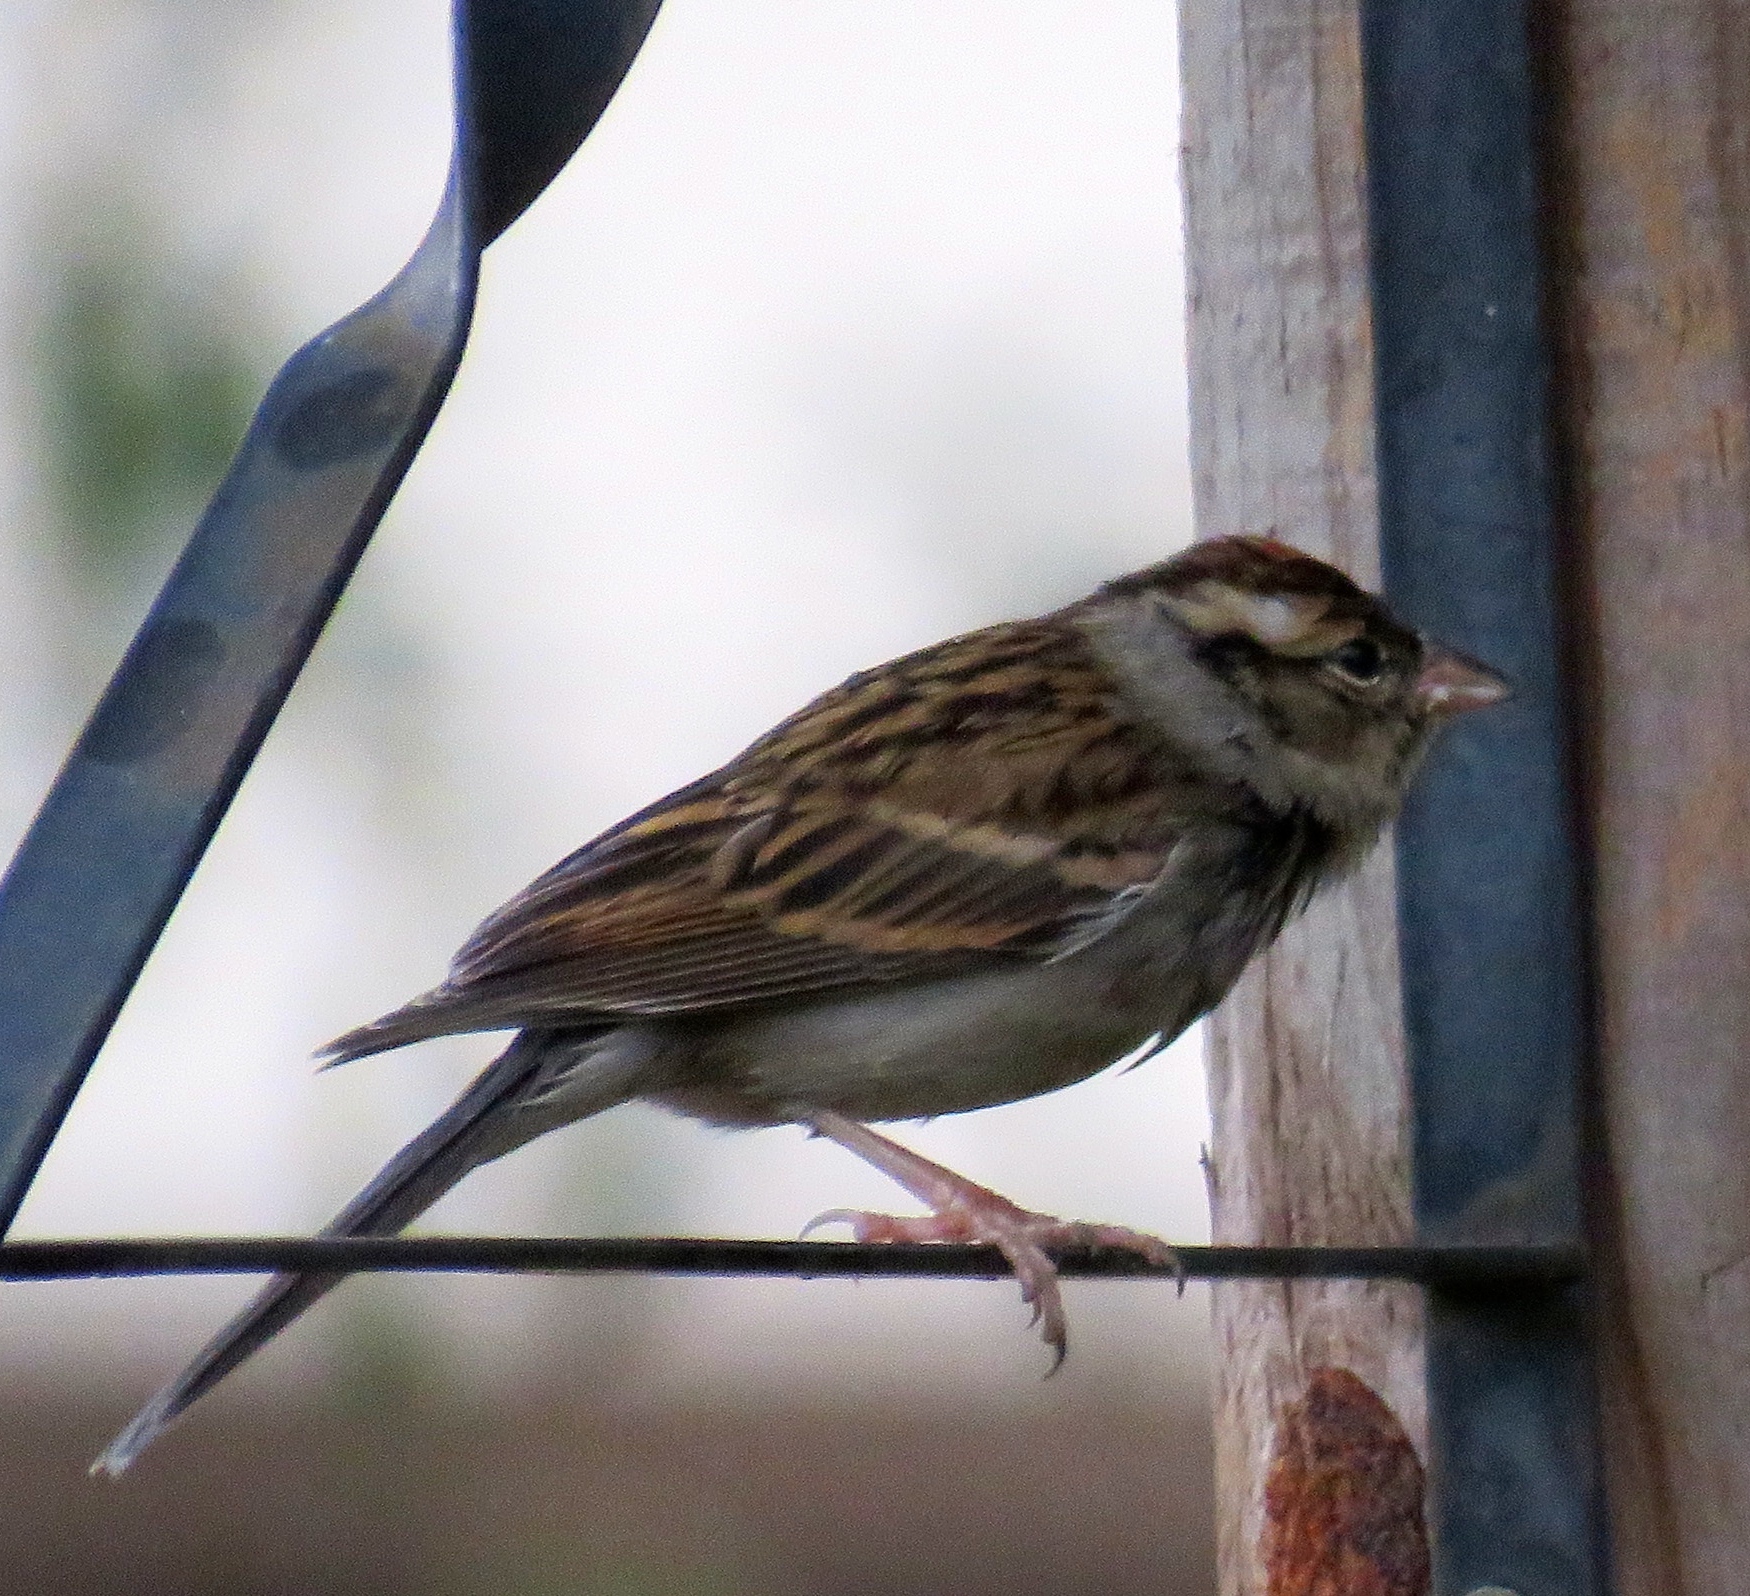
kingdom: Animalia
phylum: Chordata
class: Aves
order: Passeriformes
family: Passerellidae
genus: Spizella
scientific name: Spizella passerina
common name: Chipping sparrow
